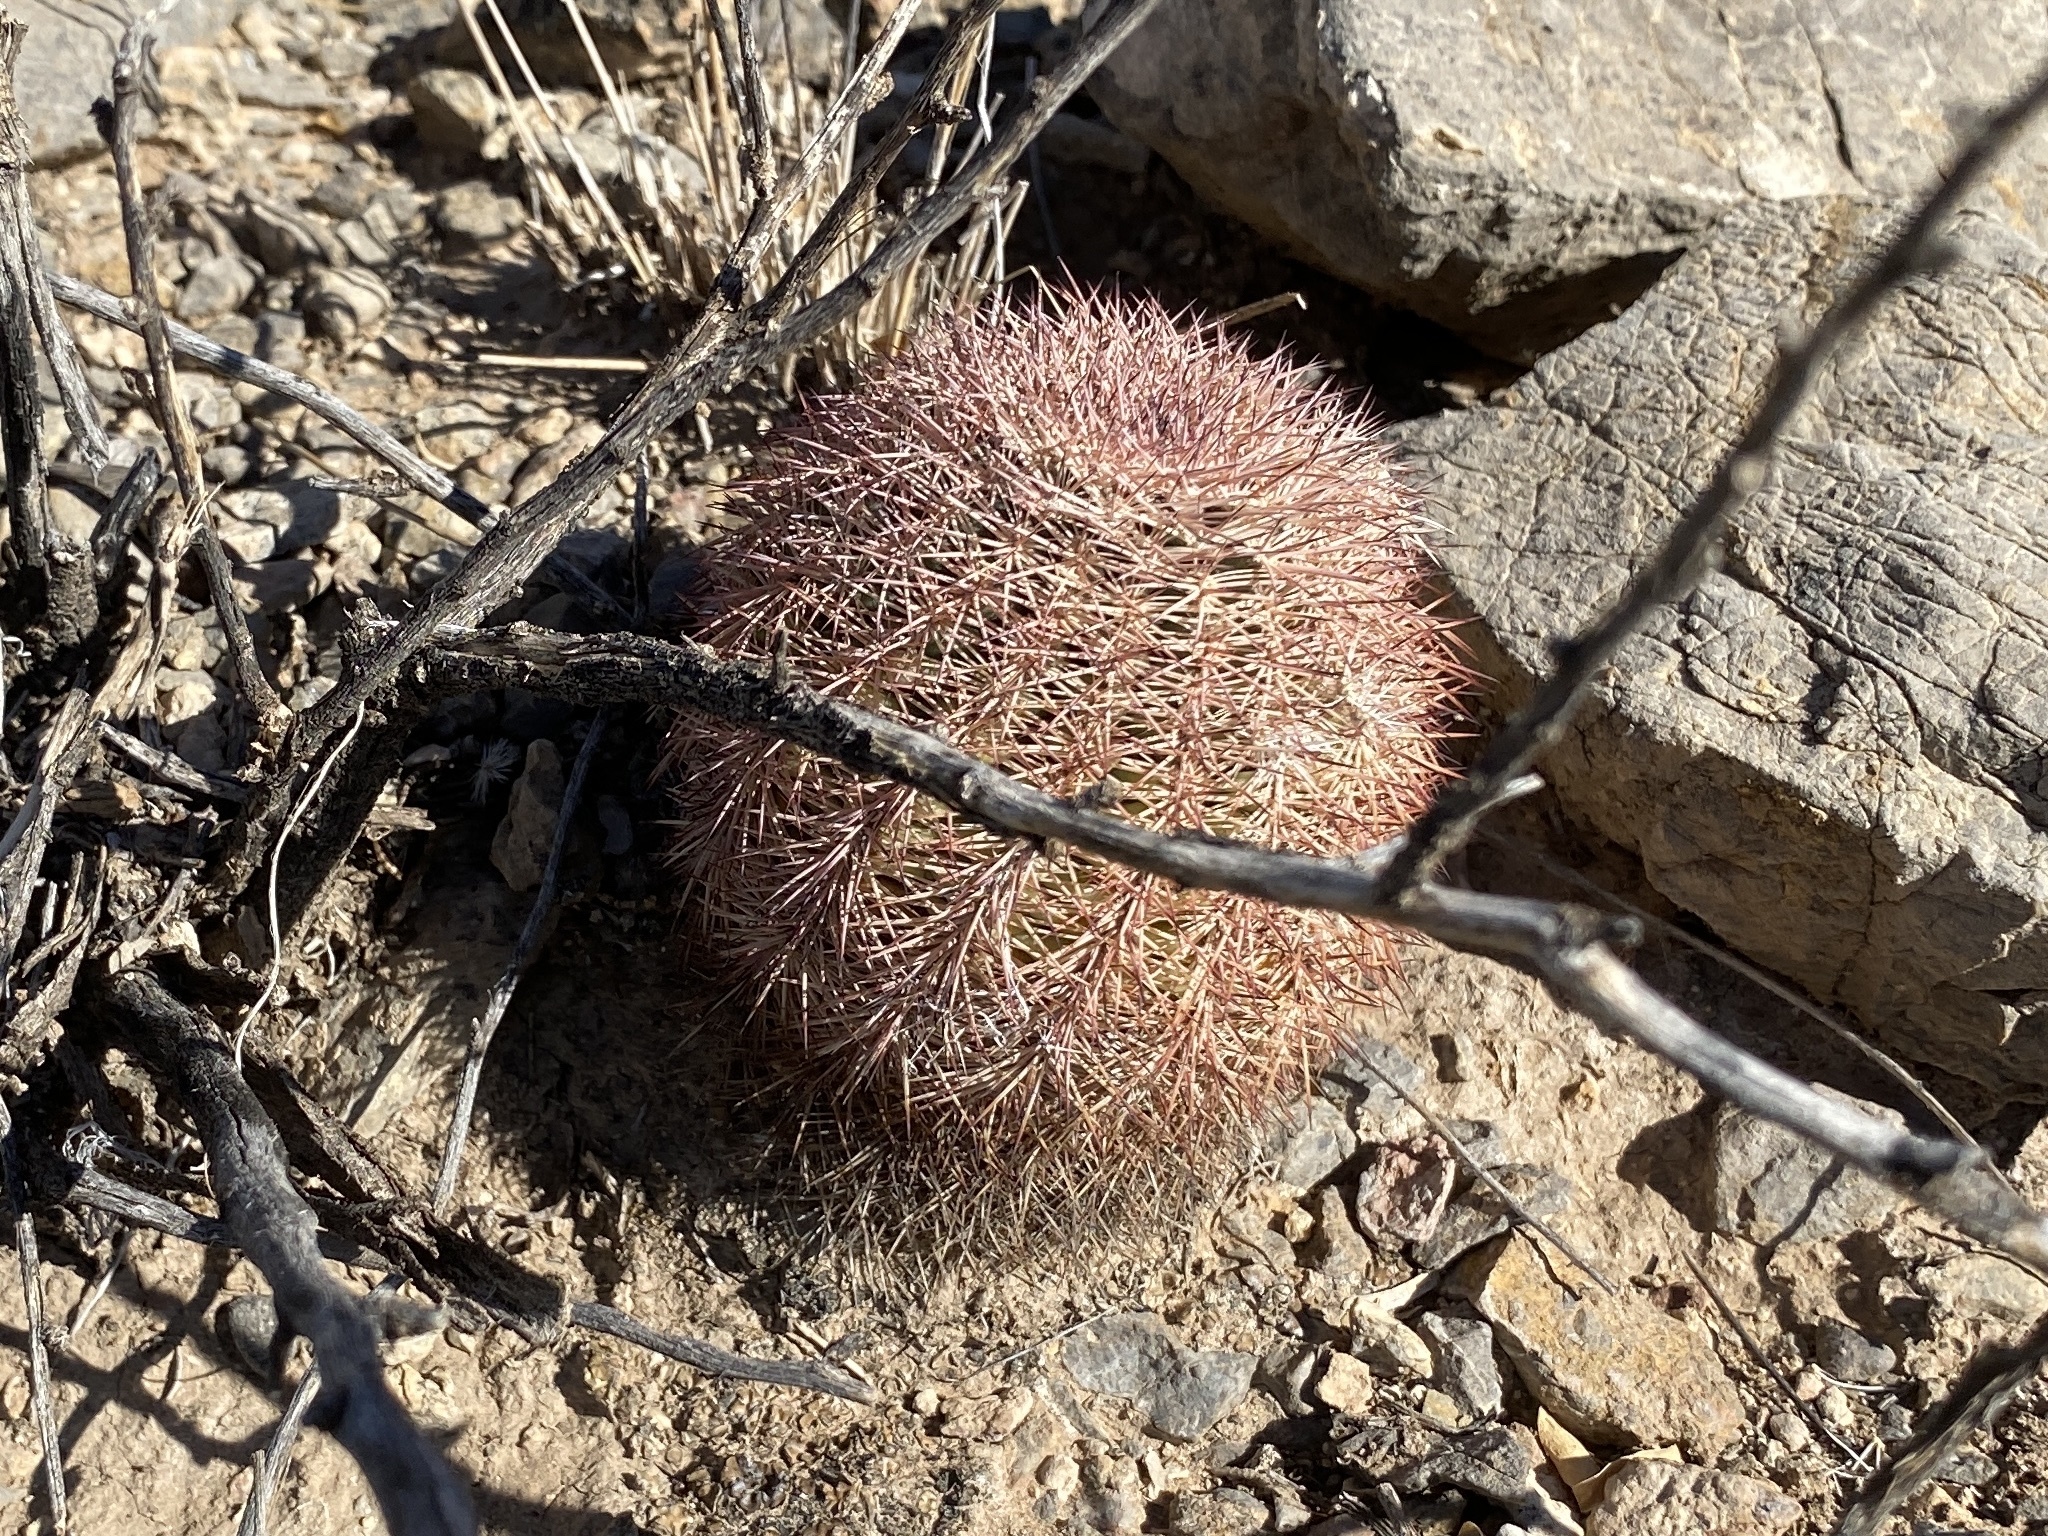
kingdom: Plantae
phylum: Tracheophyta
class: Magnoliopsida
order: Caryophyllales
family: Cactaceae
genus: Echinocereus
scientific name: Echinocereus dasyacanthus
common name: Spiny hedgehog cactus
